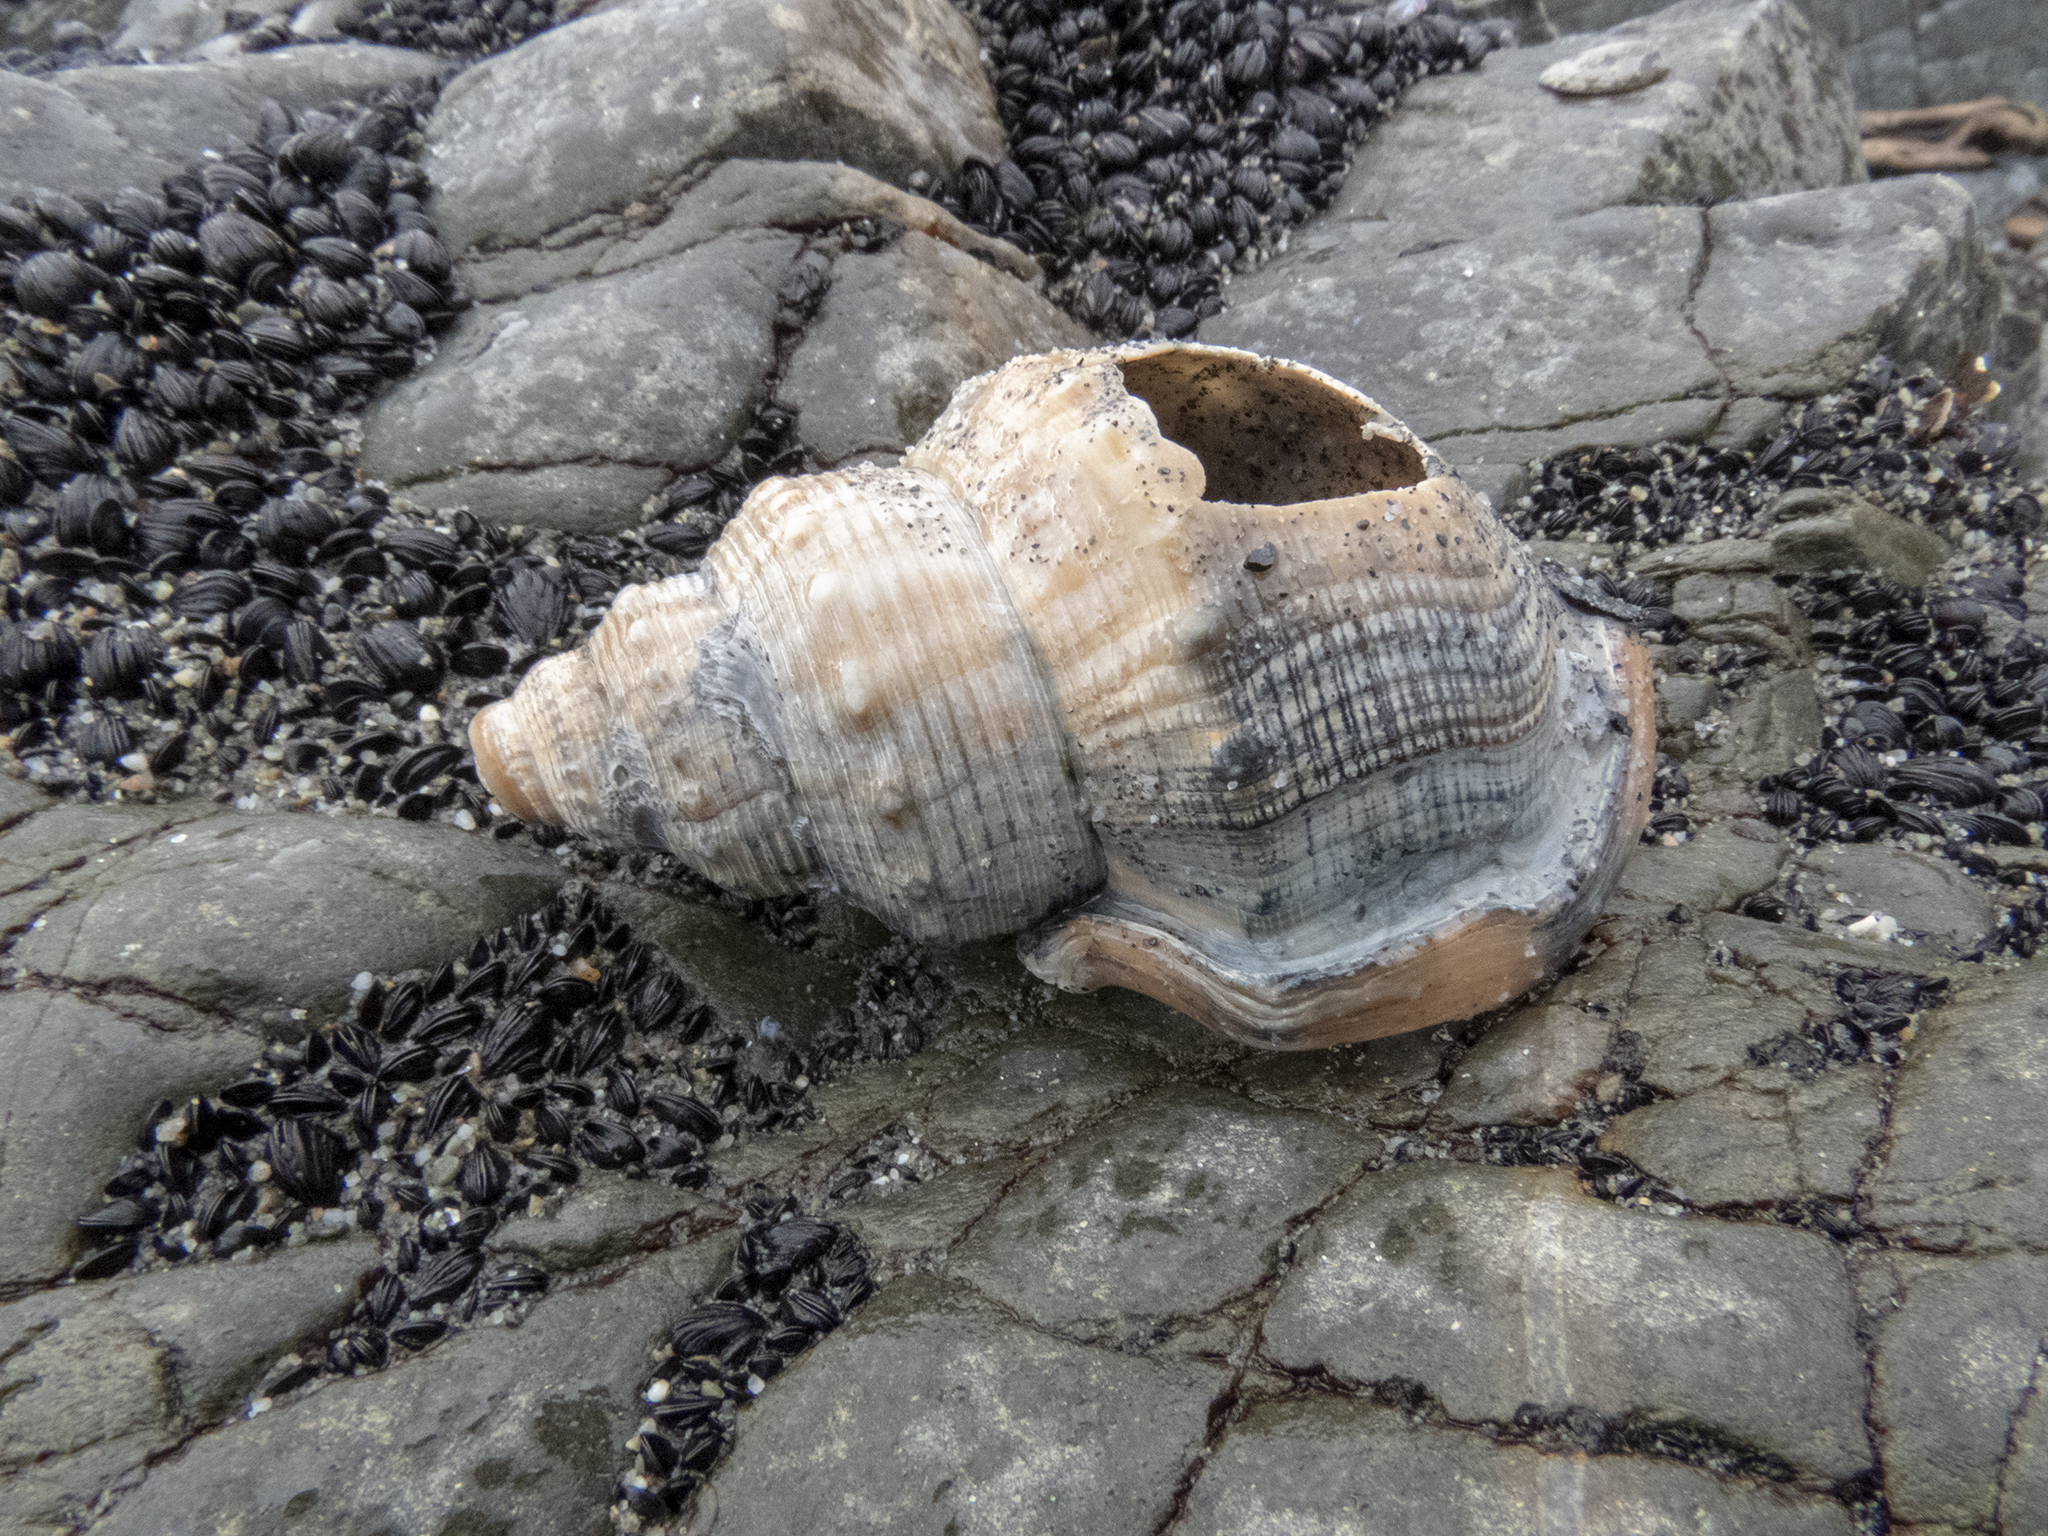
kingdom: Animalia
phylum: Mollusca
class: Gastropoda
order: Littorinimorpha
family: Struthiolariidae
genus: Struthiolaria
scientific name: Struthiolaria papulosa
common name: Large ostrich foot
